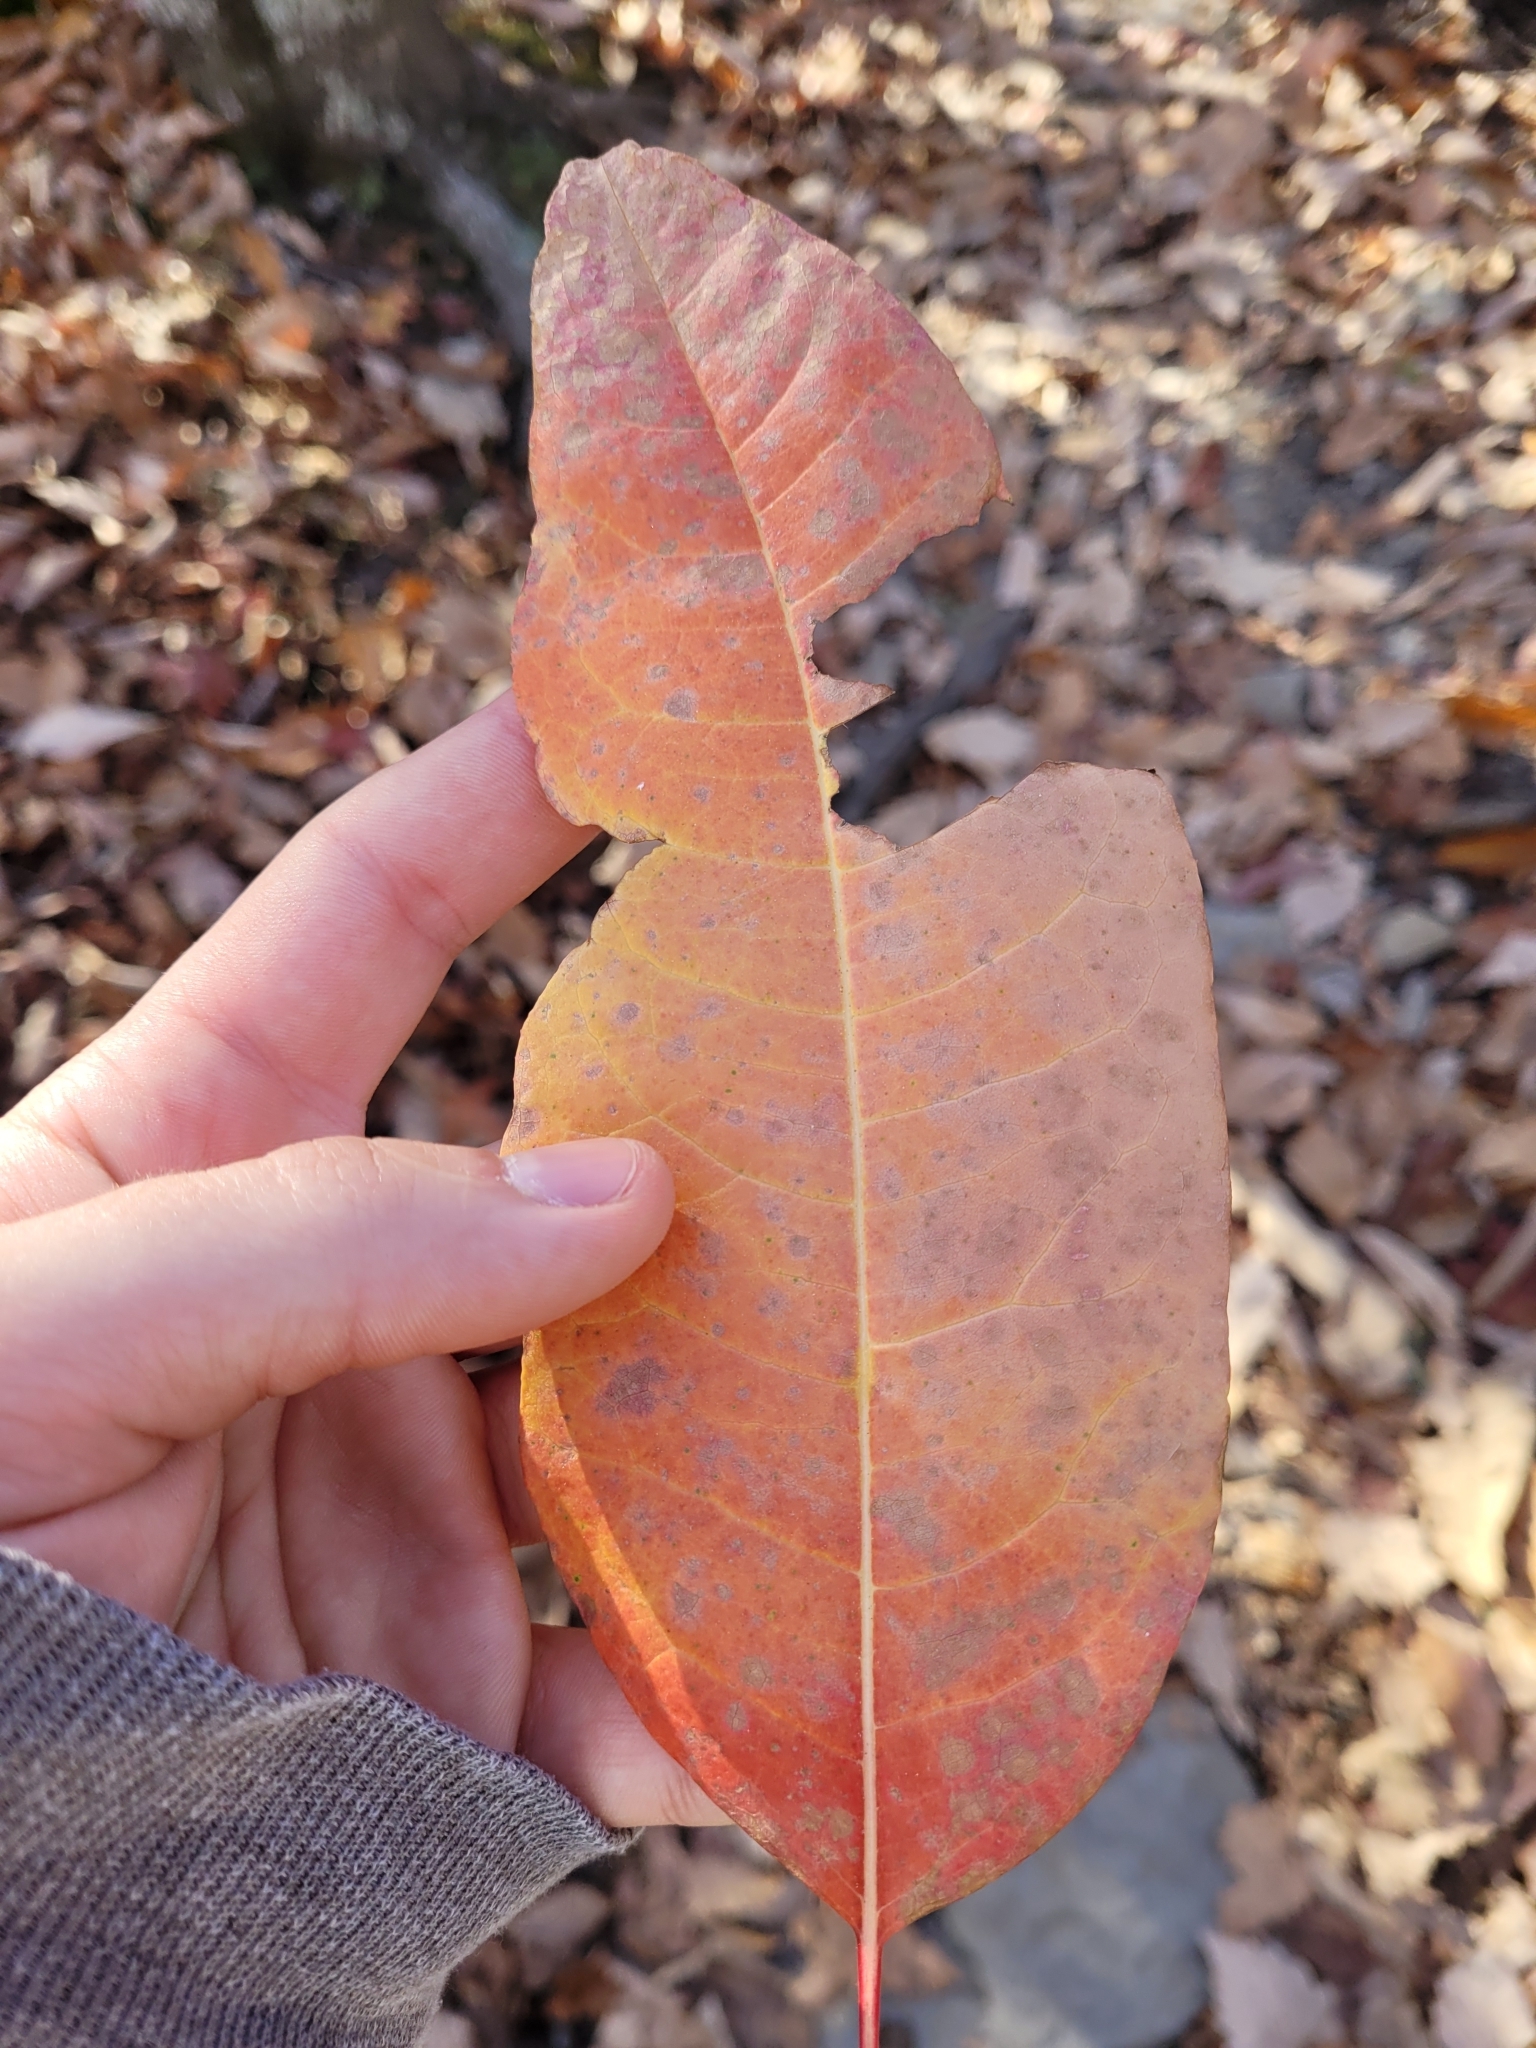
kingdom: Plantae
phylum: Tracheophyta
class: Magnoliopsida
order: Ericales
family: Ericaceae
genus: Oxydendrum
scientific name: Oxydendrum arboreum
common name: Sourwood
